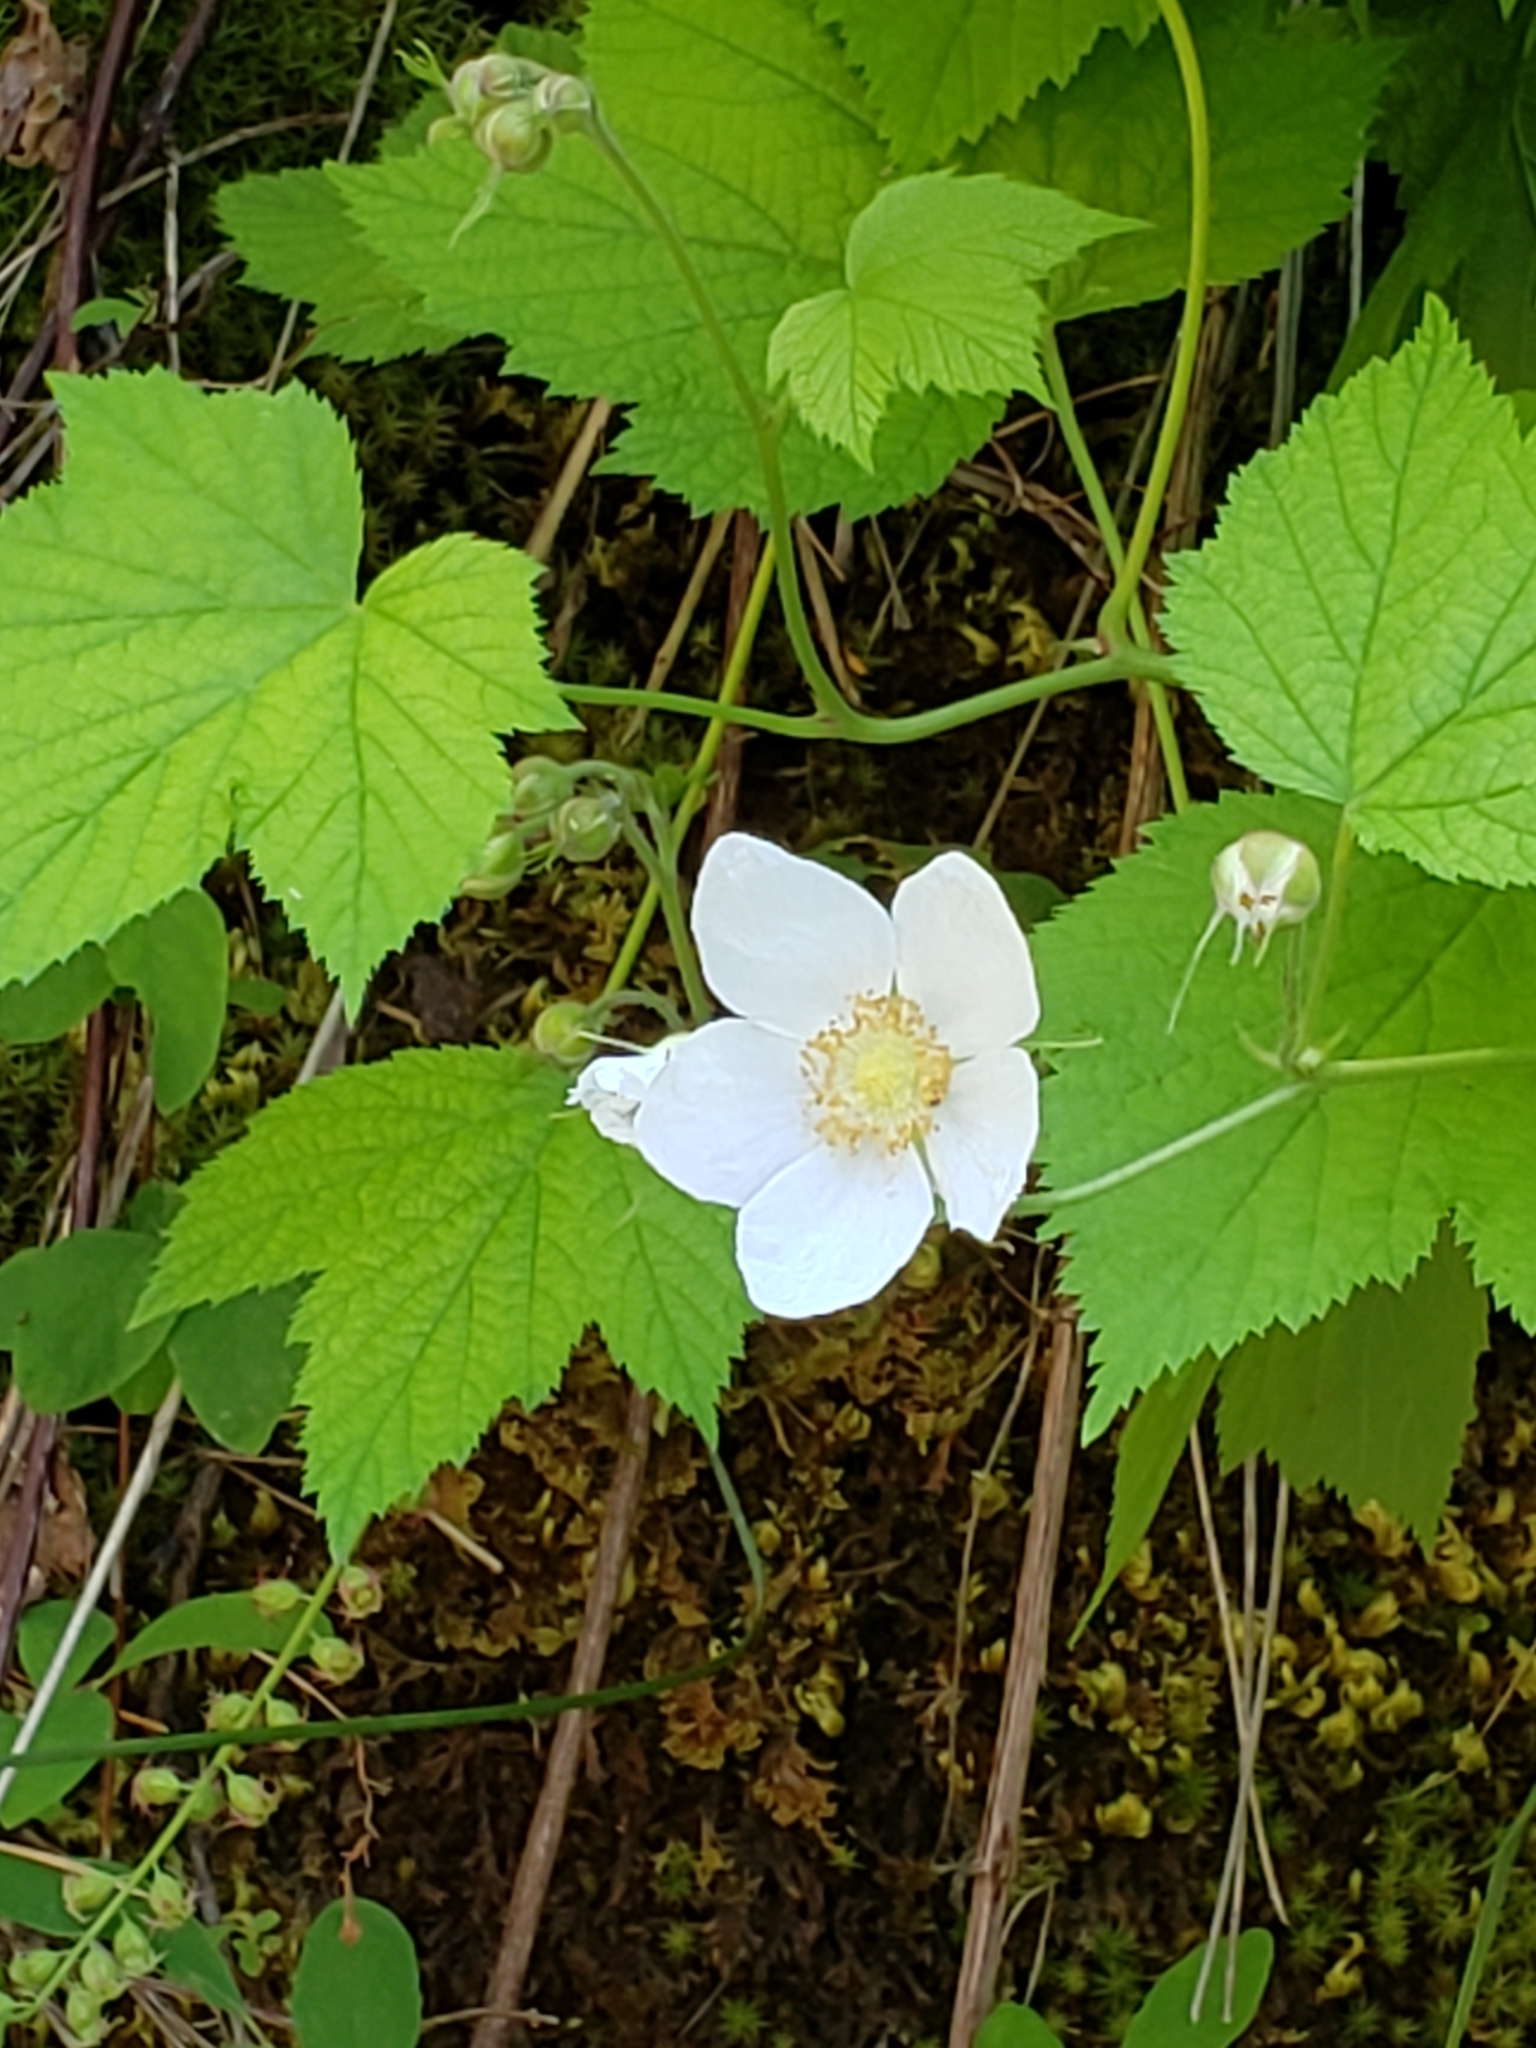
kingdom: Plantae
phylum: Tracheophyta
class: Magnoliopsida
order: Rosales
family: Rosaceae
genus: Rubus
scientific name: Rubus parviflorus
